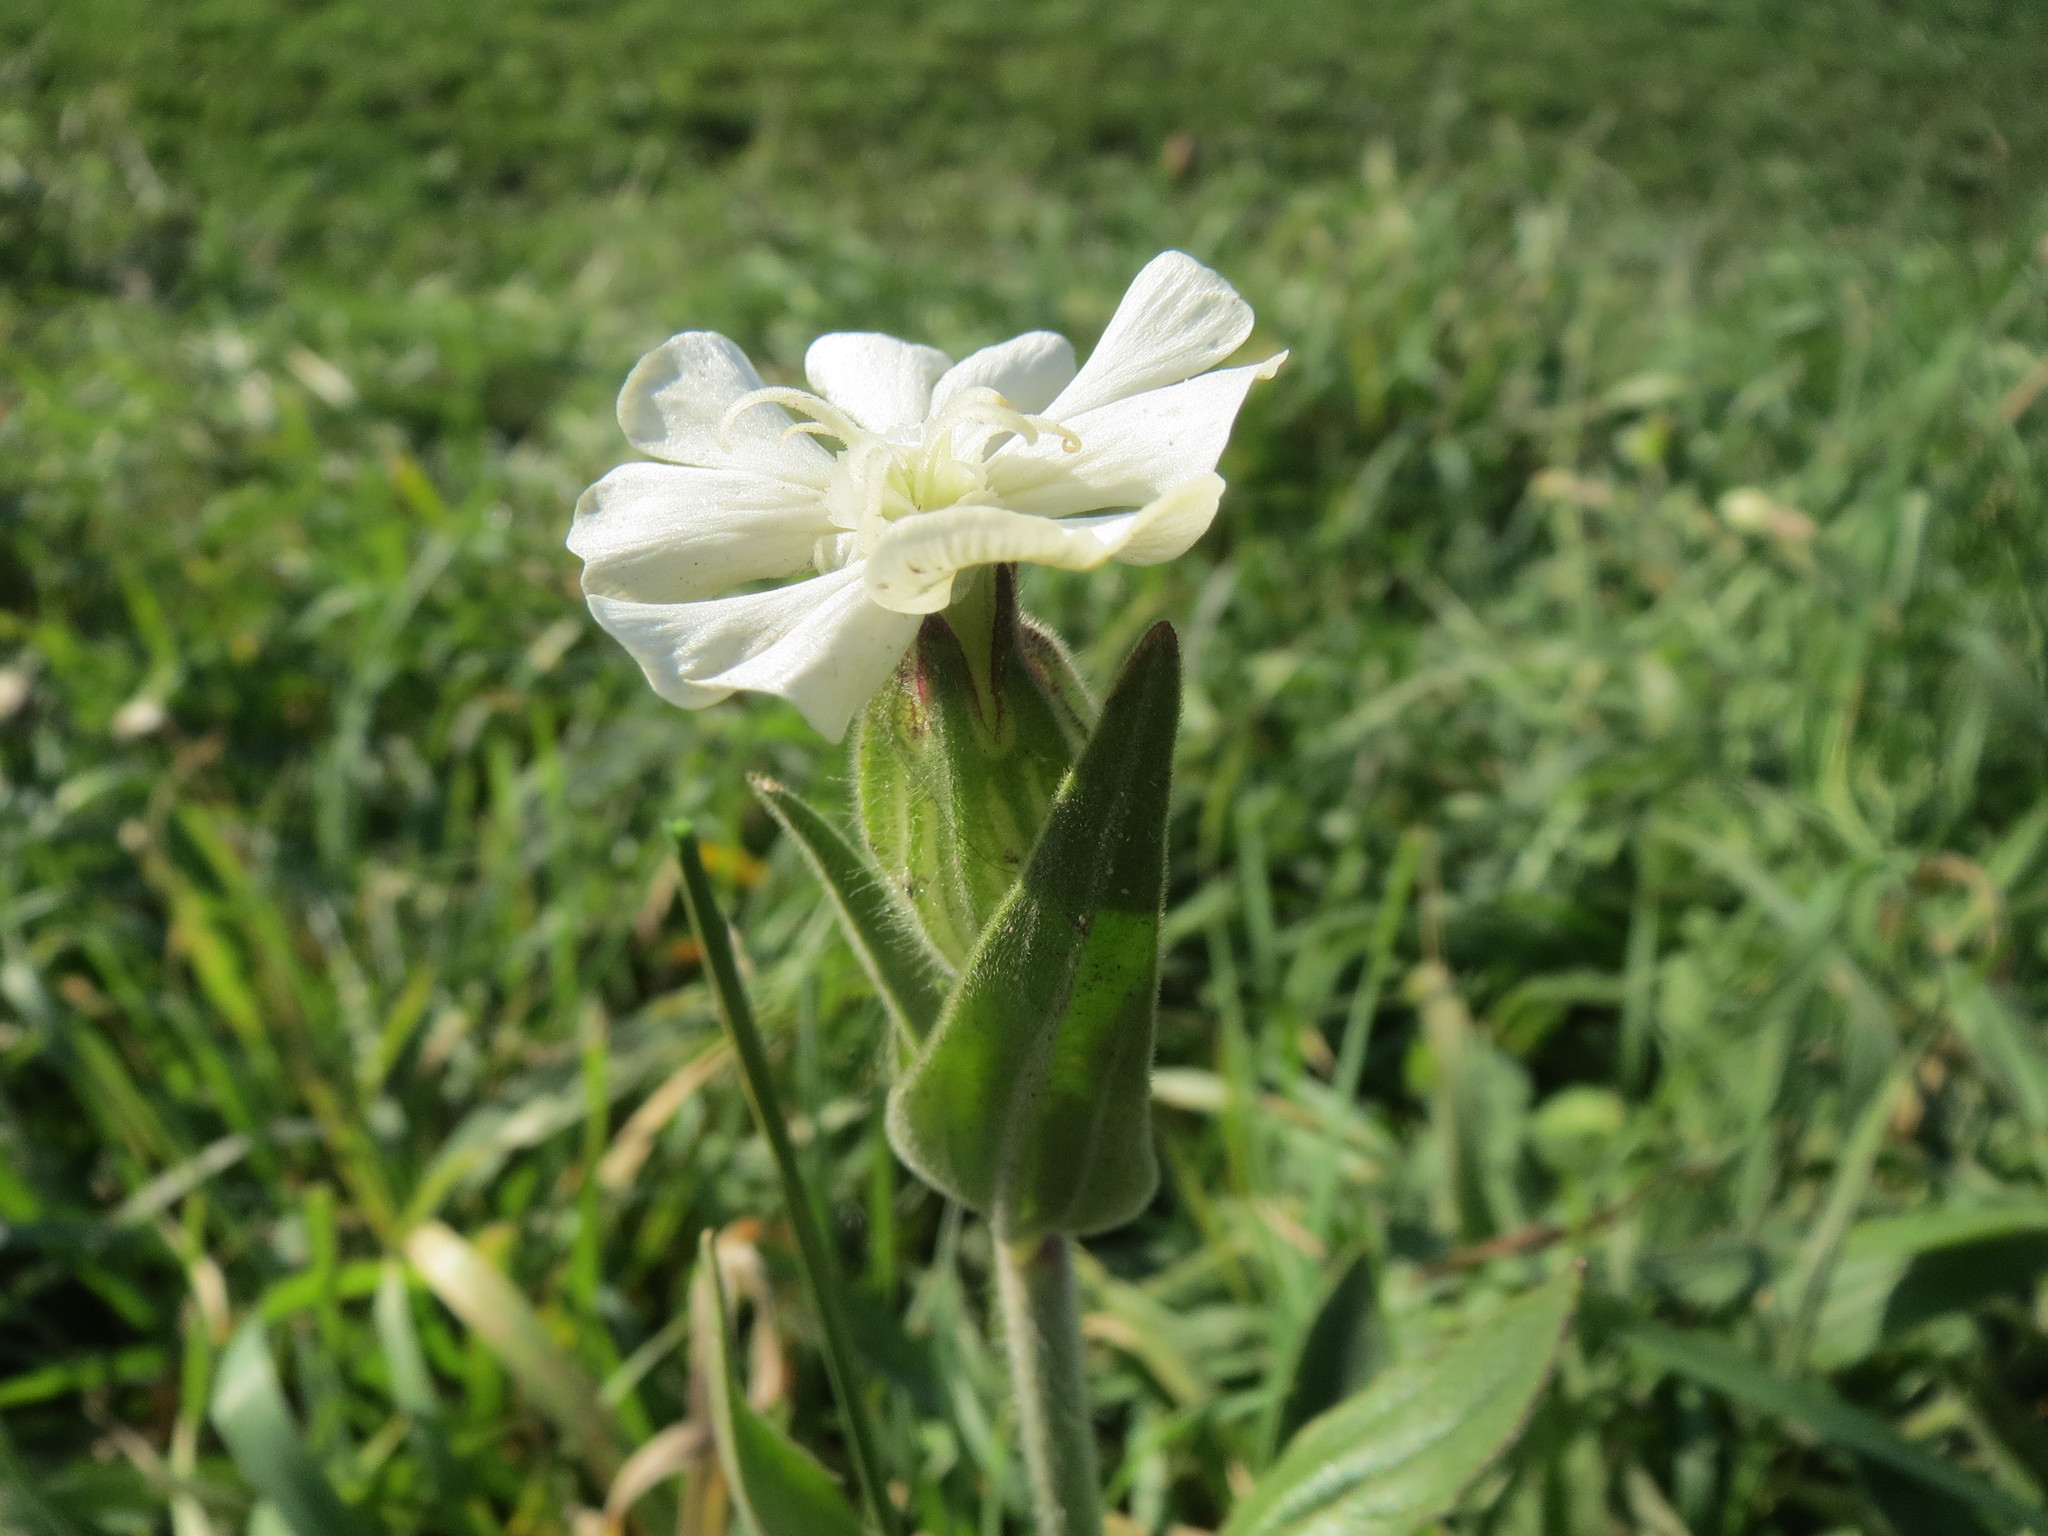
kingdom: Plantae
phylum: Tracheophyta
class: Magnoliopsida
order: Caryophyllales
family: Caryophyllaceae
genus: Silene
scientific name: Silene latifolia
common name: White campion
